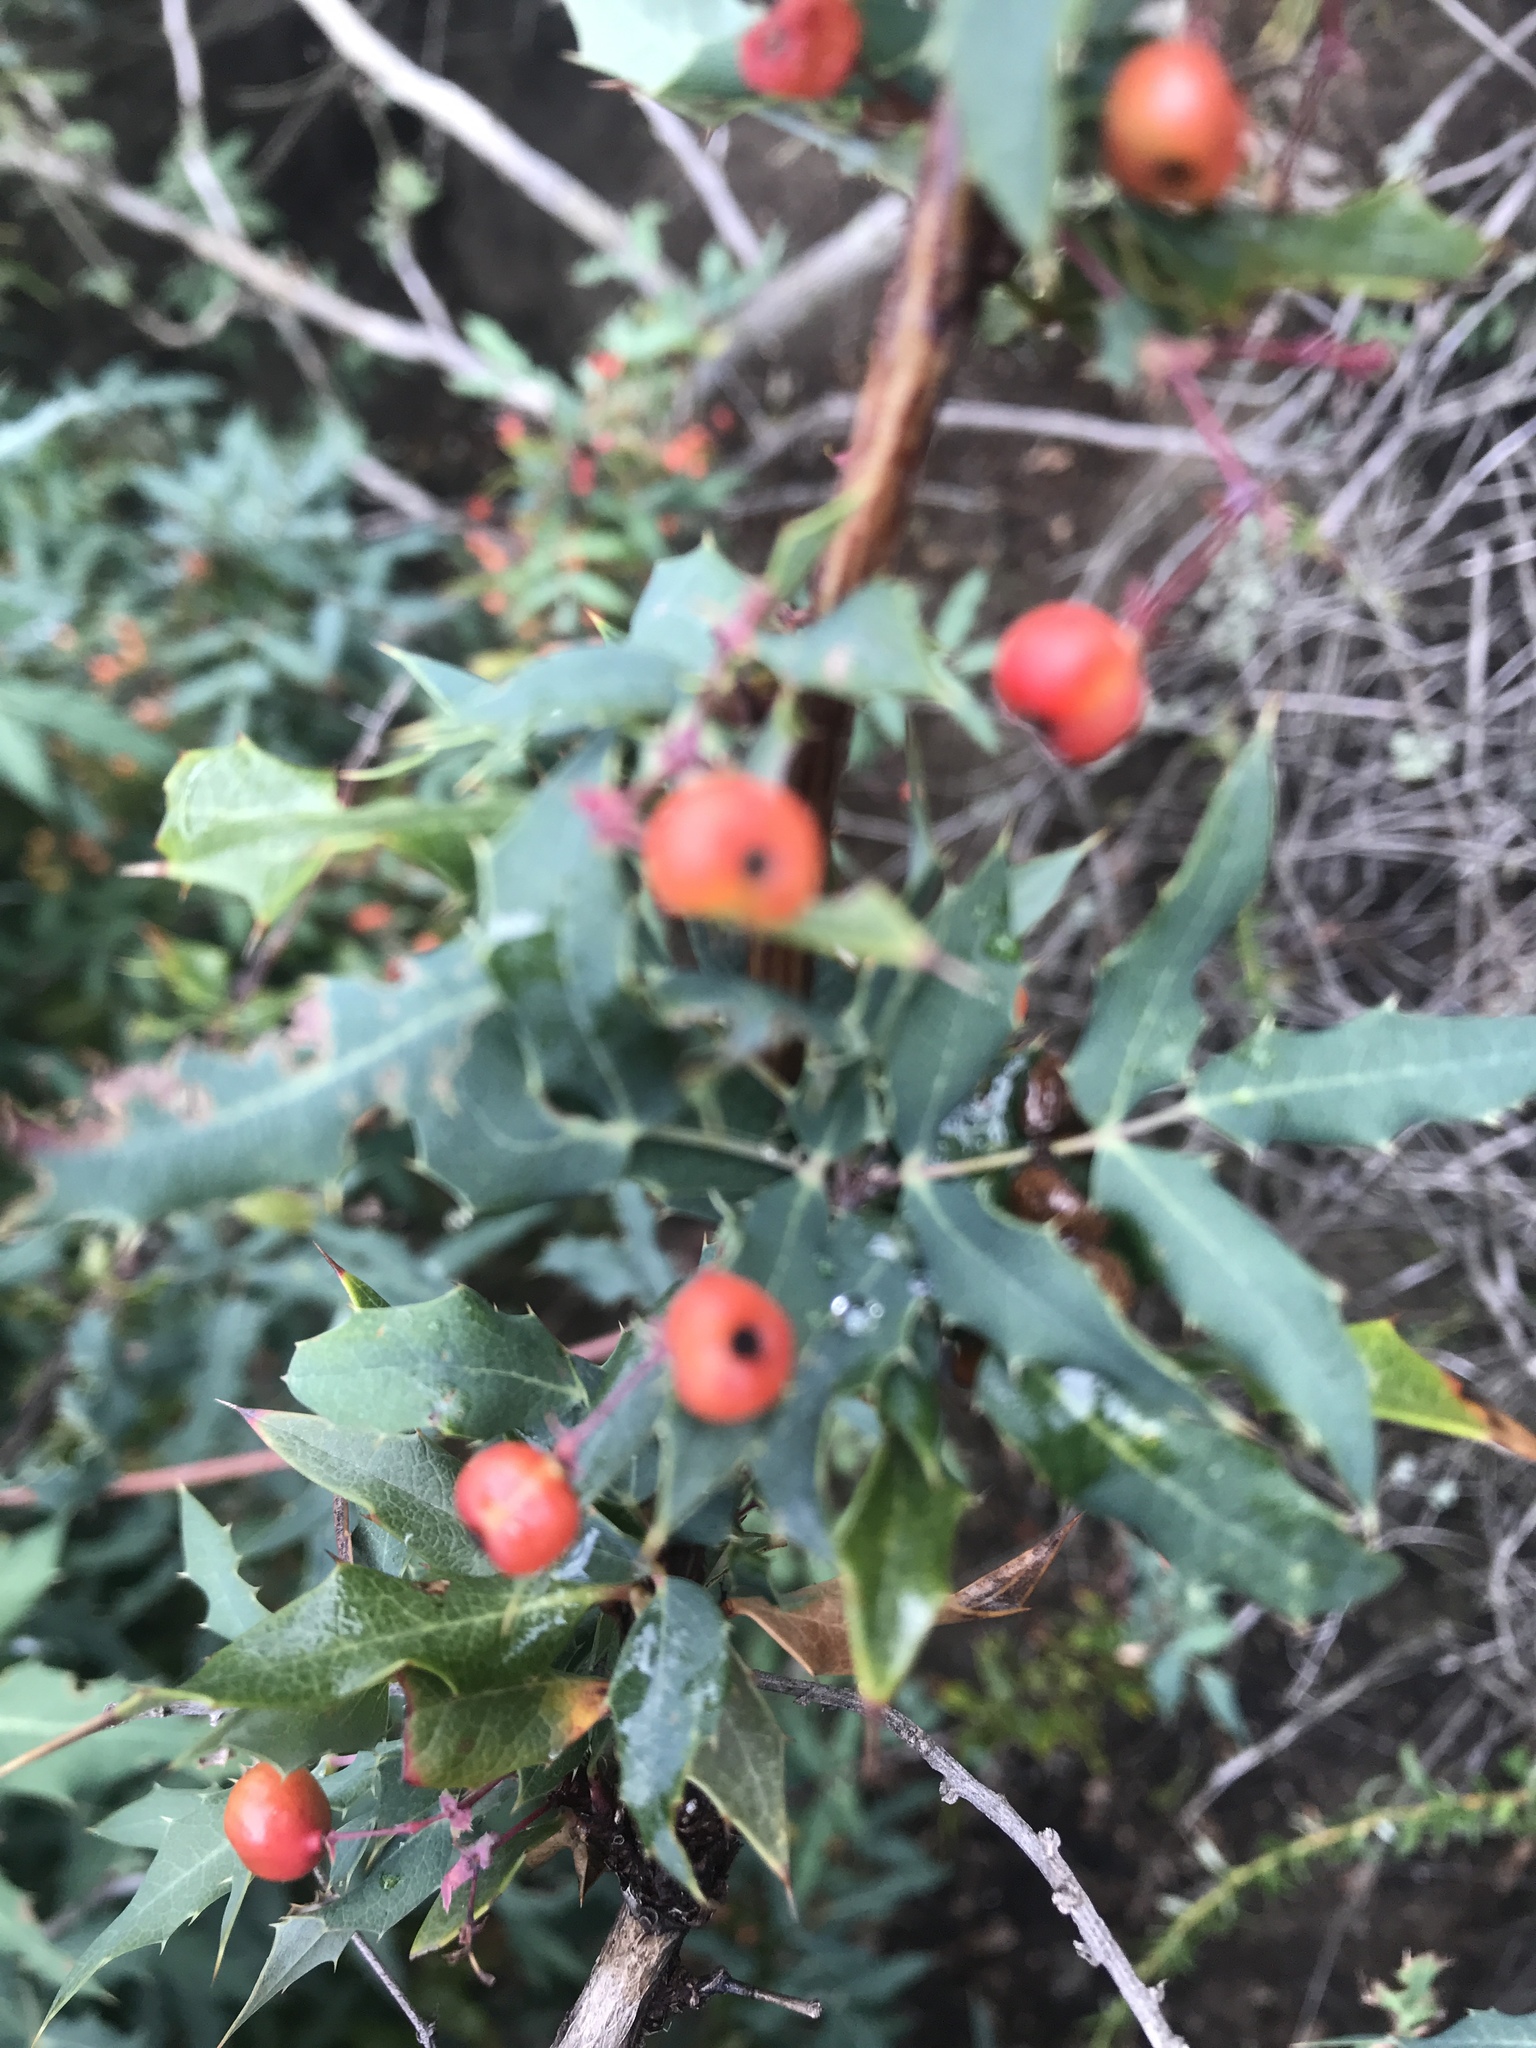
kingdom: Plantae
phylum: Tracheophyta
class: Magnoliopsida
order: Ranunculales
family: Berberidaceae
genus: Alloberberis
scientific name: Alloberberis nevinii
